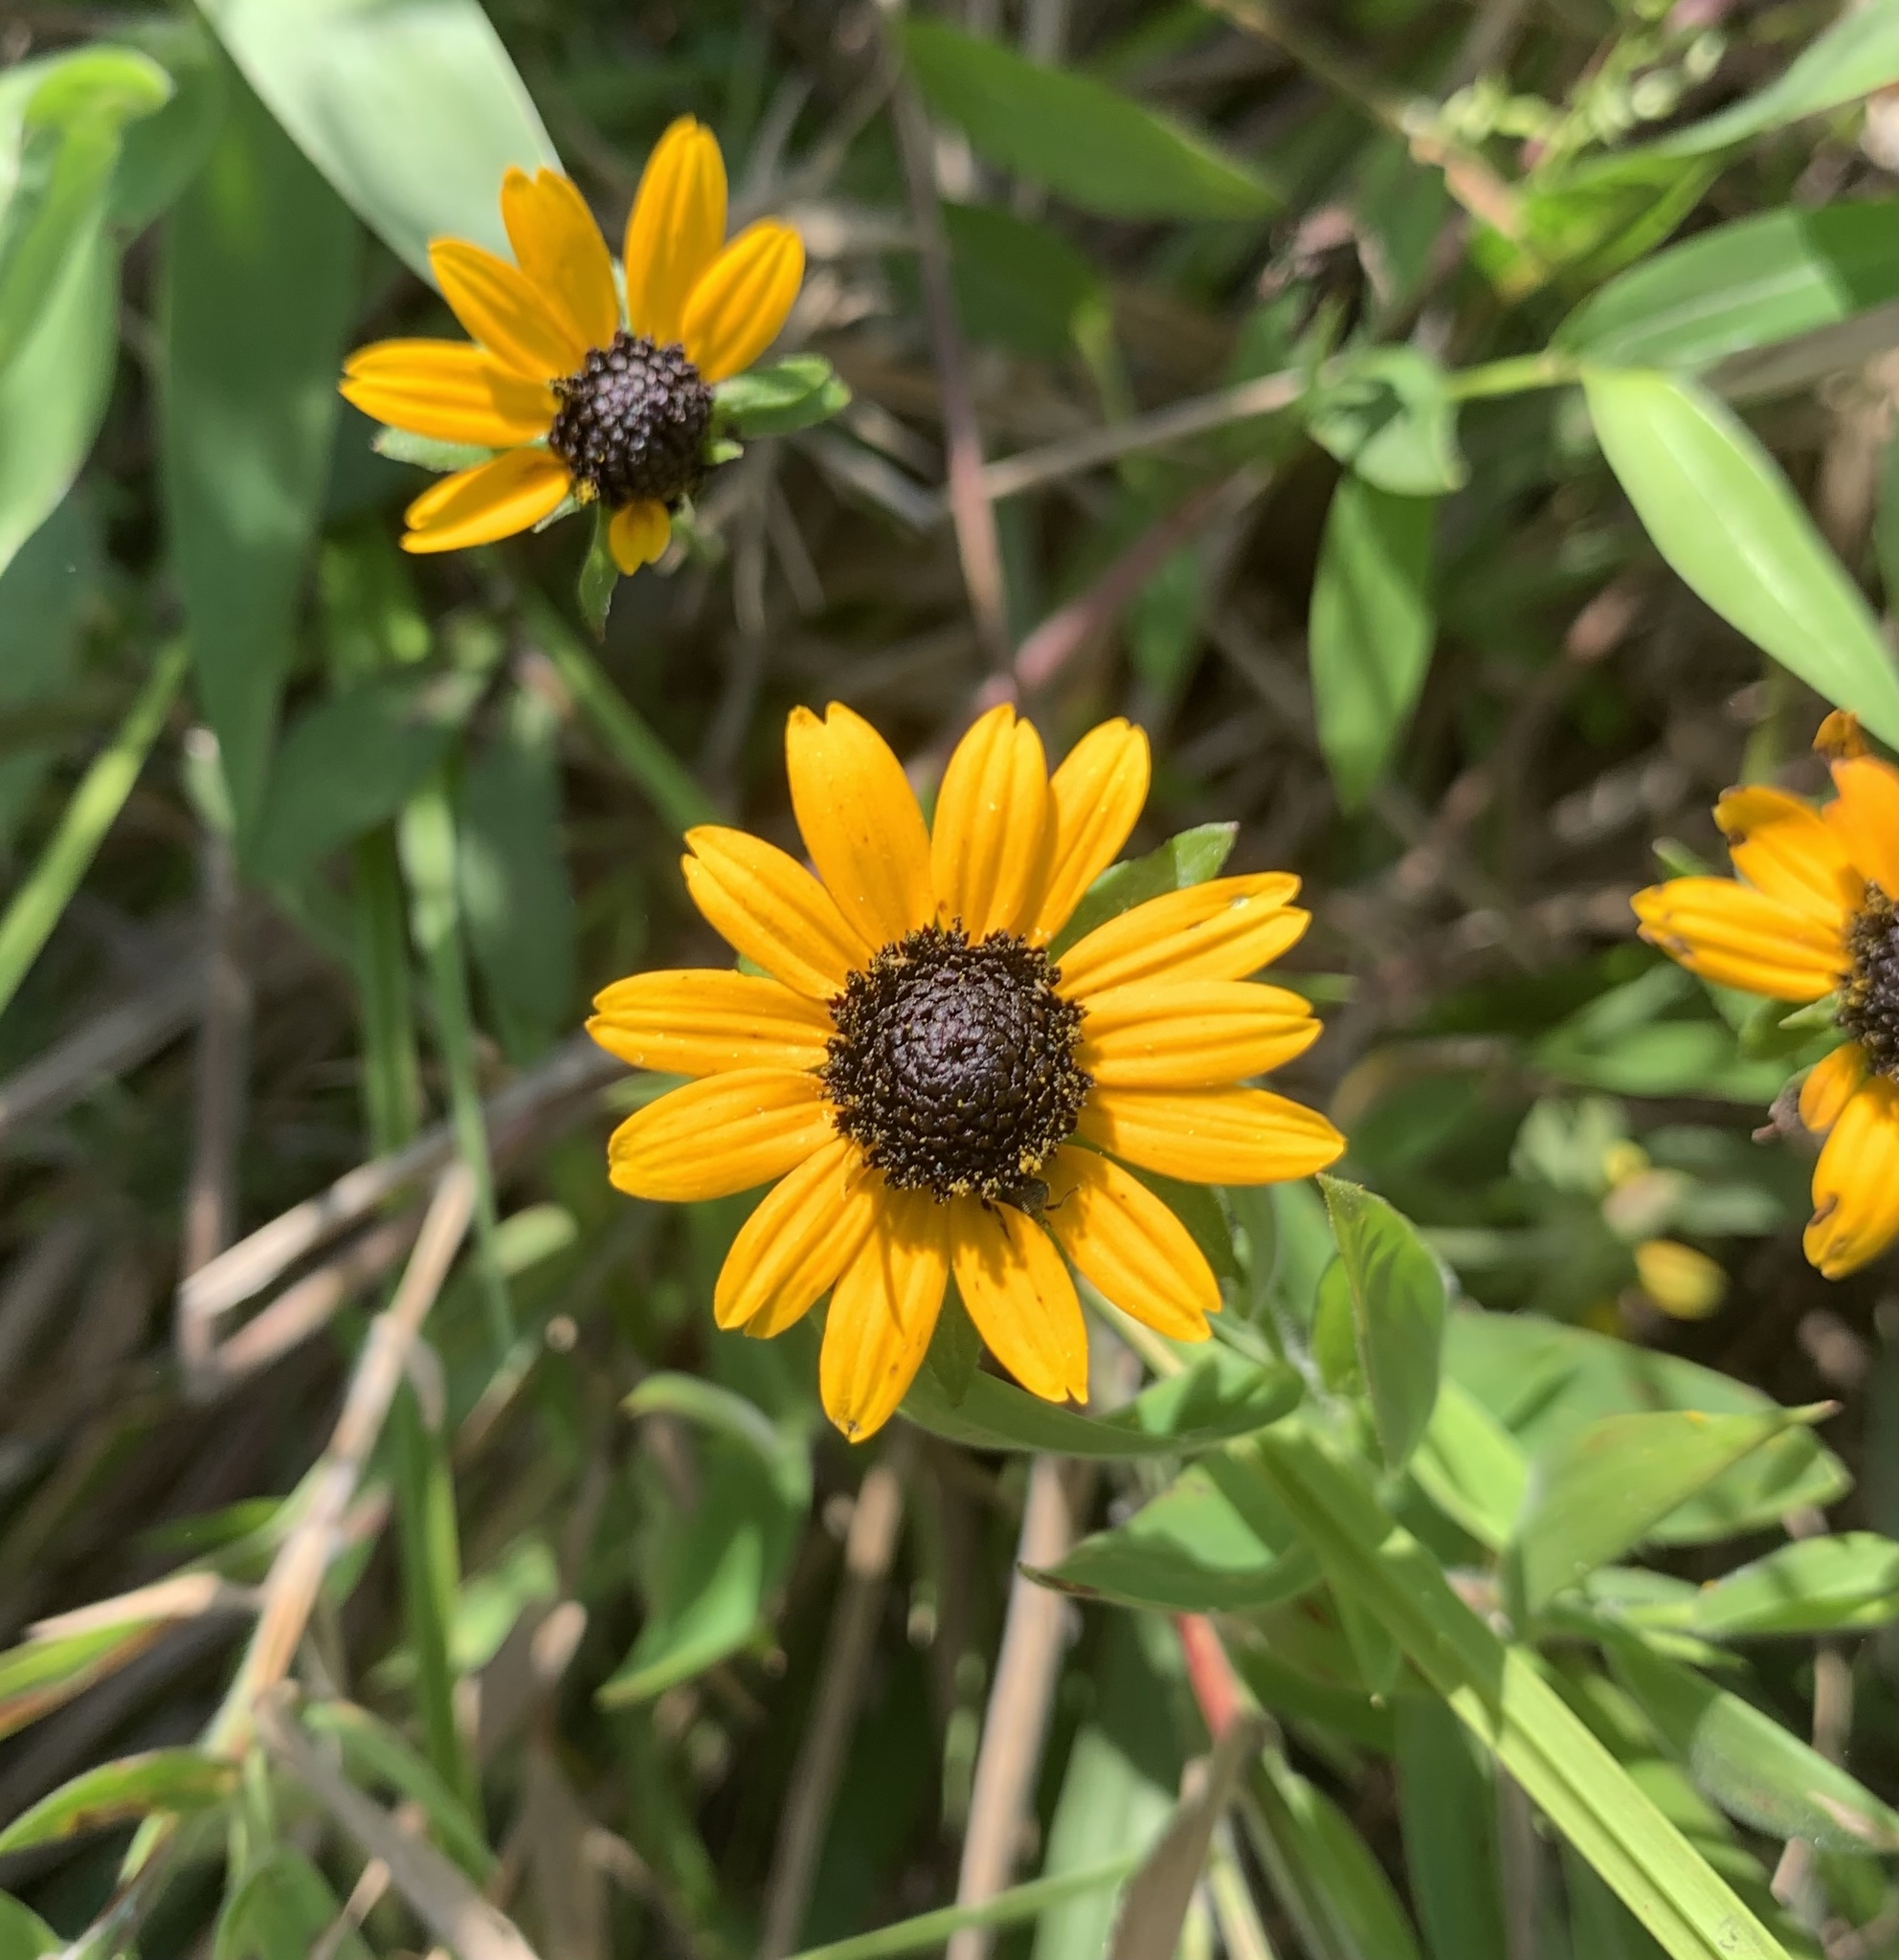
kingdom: Plantae
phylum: Tracheophyta
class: Magnoliopsida
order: Asterales
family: Asteraceae
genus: Rudbeckia
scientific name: Rudbeckia fulgida
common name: Perennial coneflower
